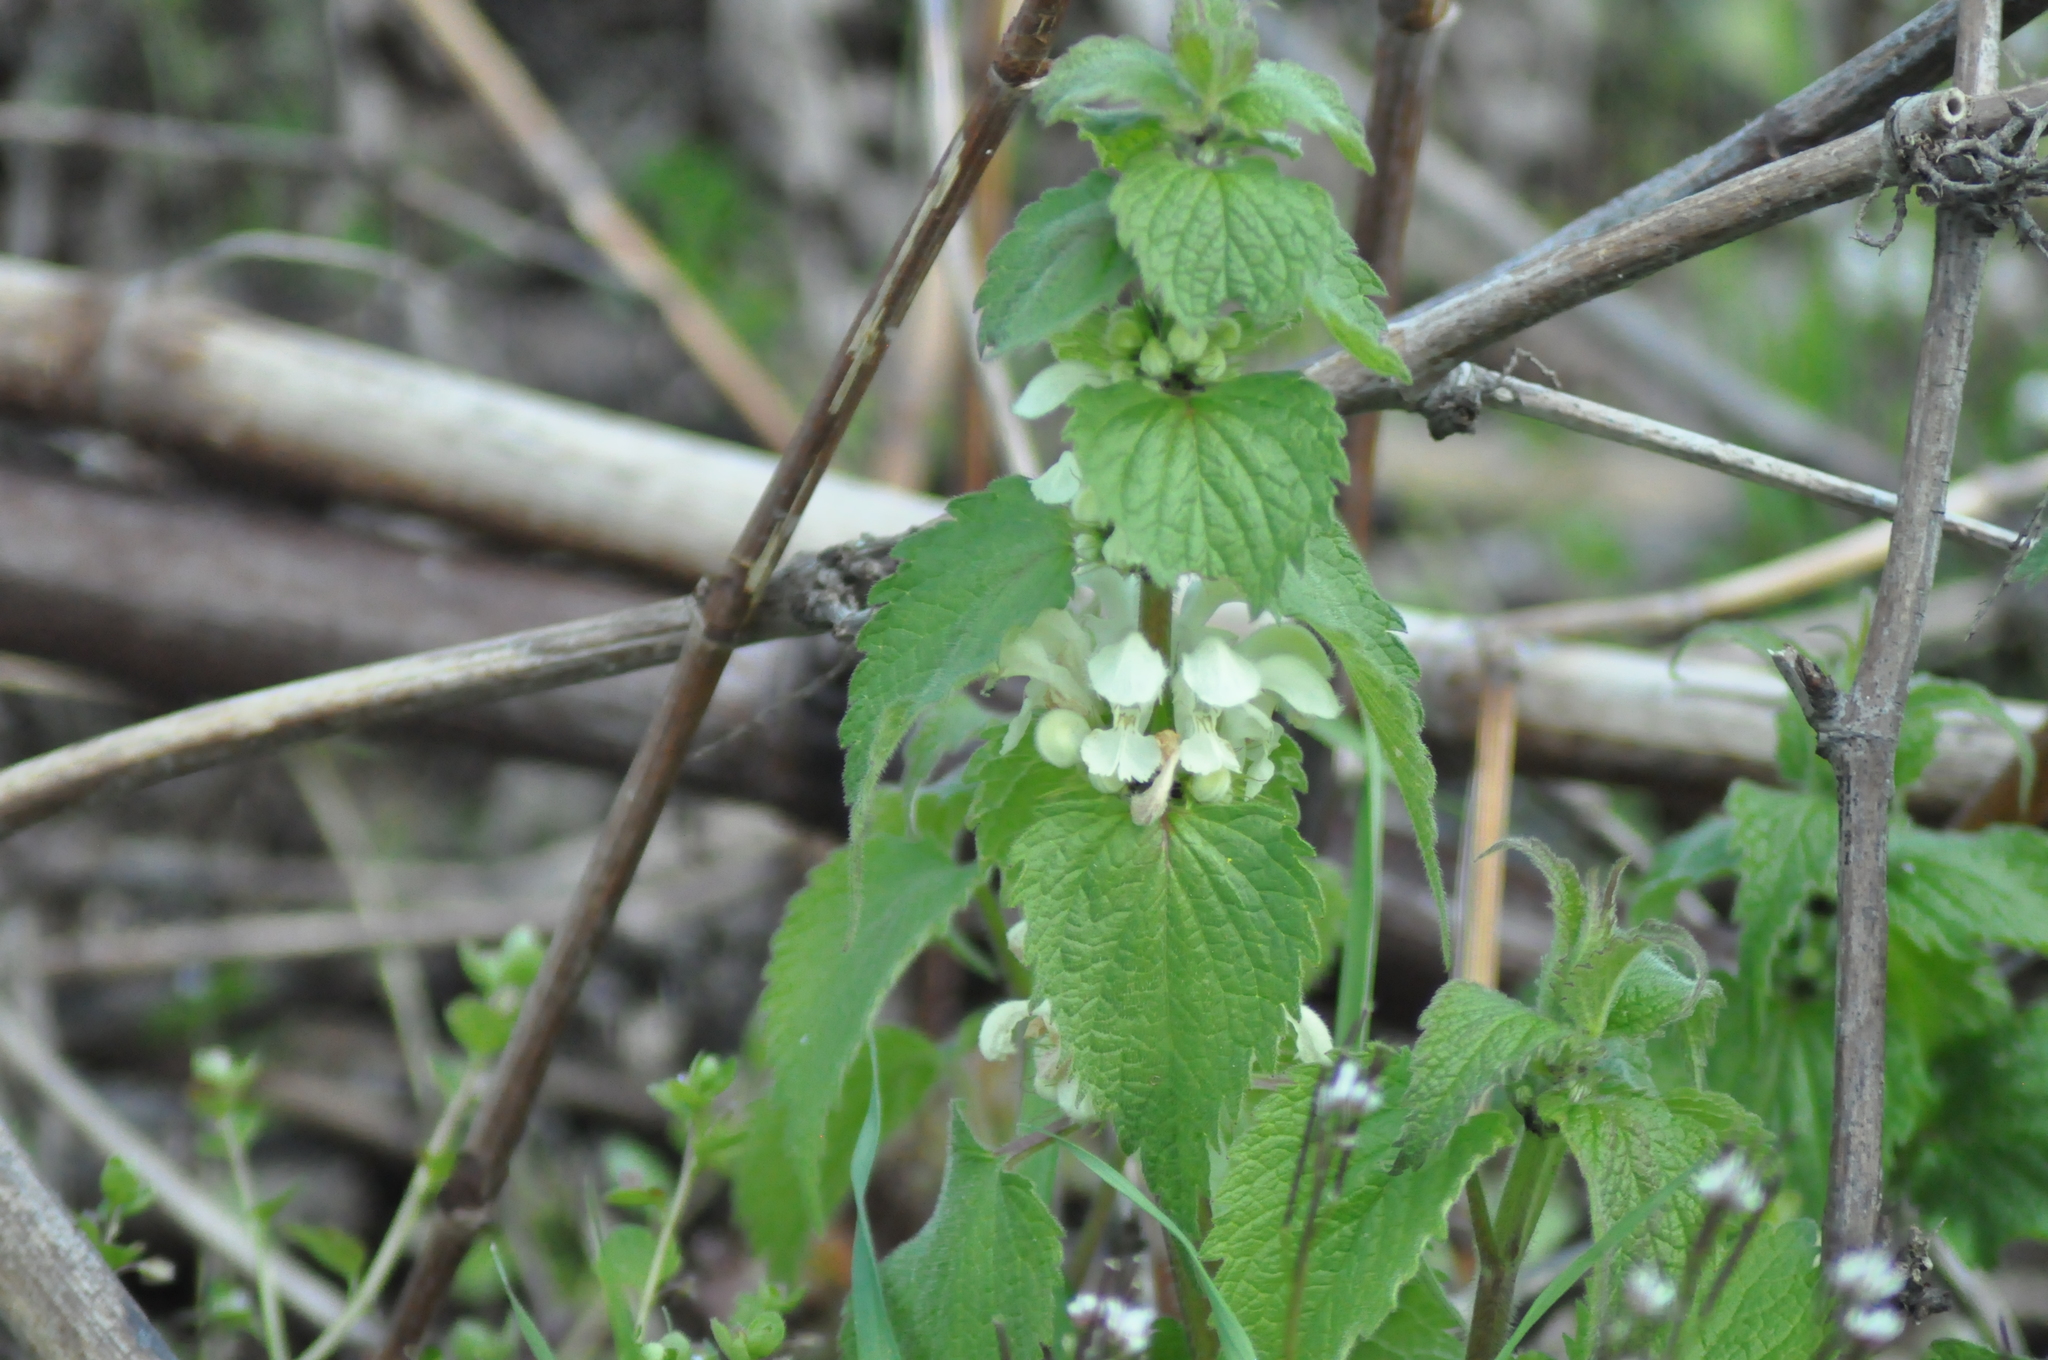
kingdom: Plantae
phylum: Tracheophyta
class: Magnoliopsida
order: Lamiales
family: Lamiaceae
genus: Lamium
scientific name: Lamium album
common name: White dead-nettle
